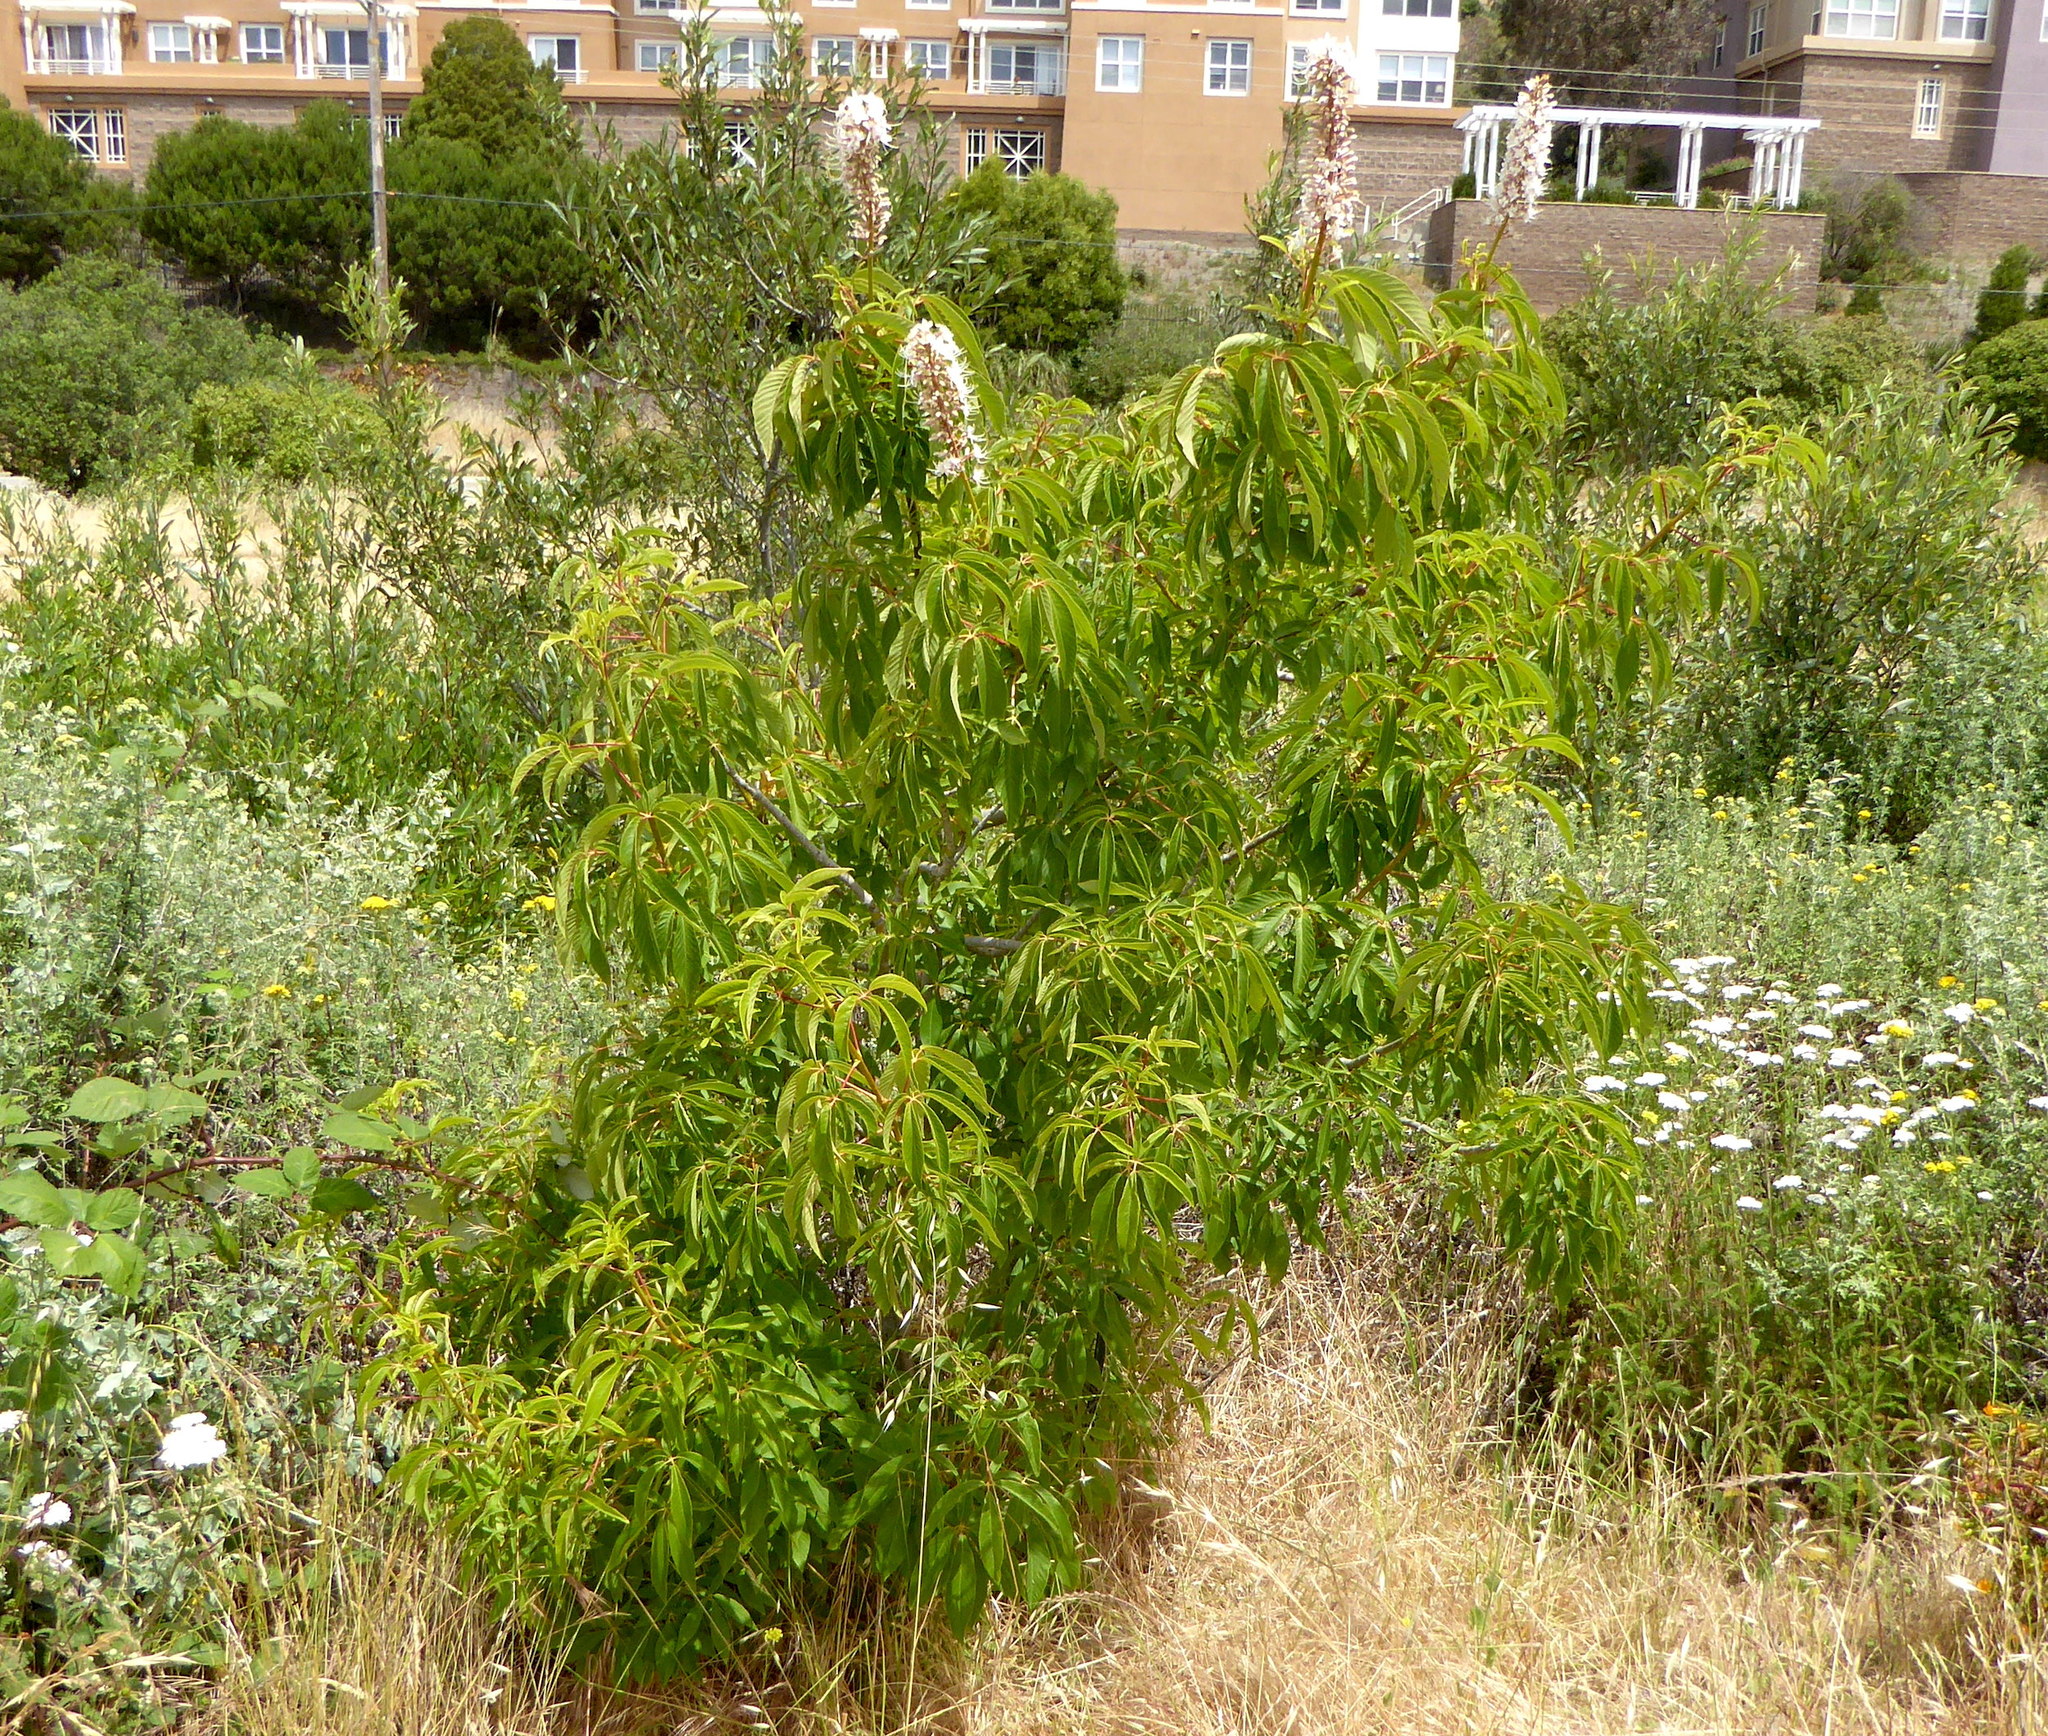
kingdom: Plantae
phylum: Tracheophyta
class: Magnoliopsida
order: Sapindales
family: Sapindaceae
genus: Aesculus
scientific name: Aesculus californica
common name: California buckeye
